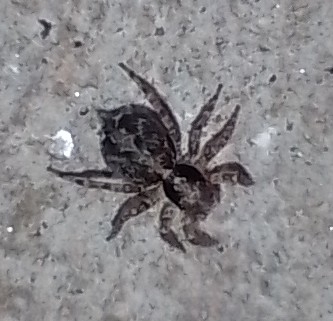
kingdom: Animalia
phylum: Arthropoda
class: Arachnida
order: Araneae
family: Salticidae
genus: Saitis
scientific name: Saitis variegatus
